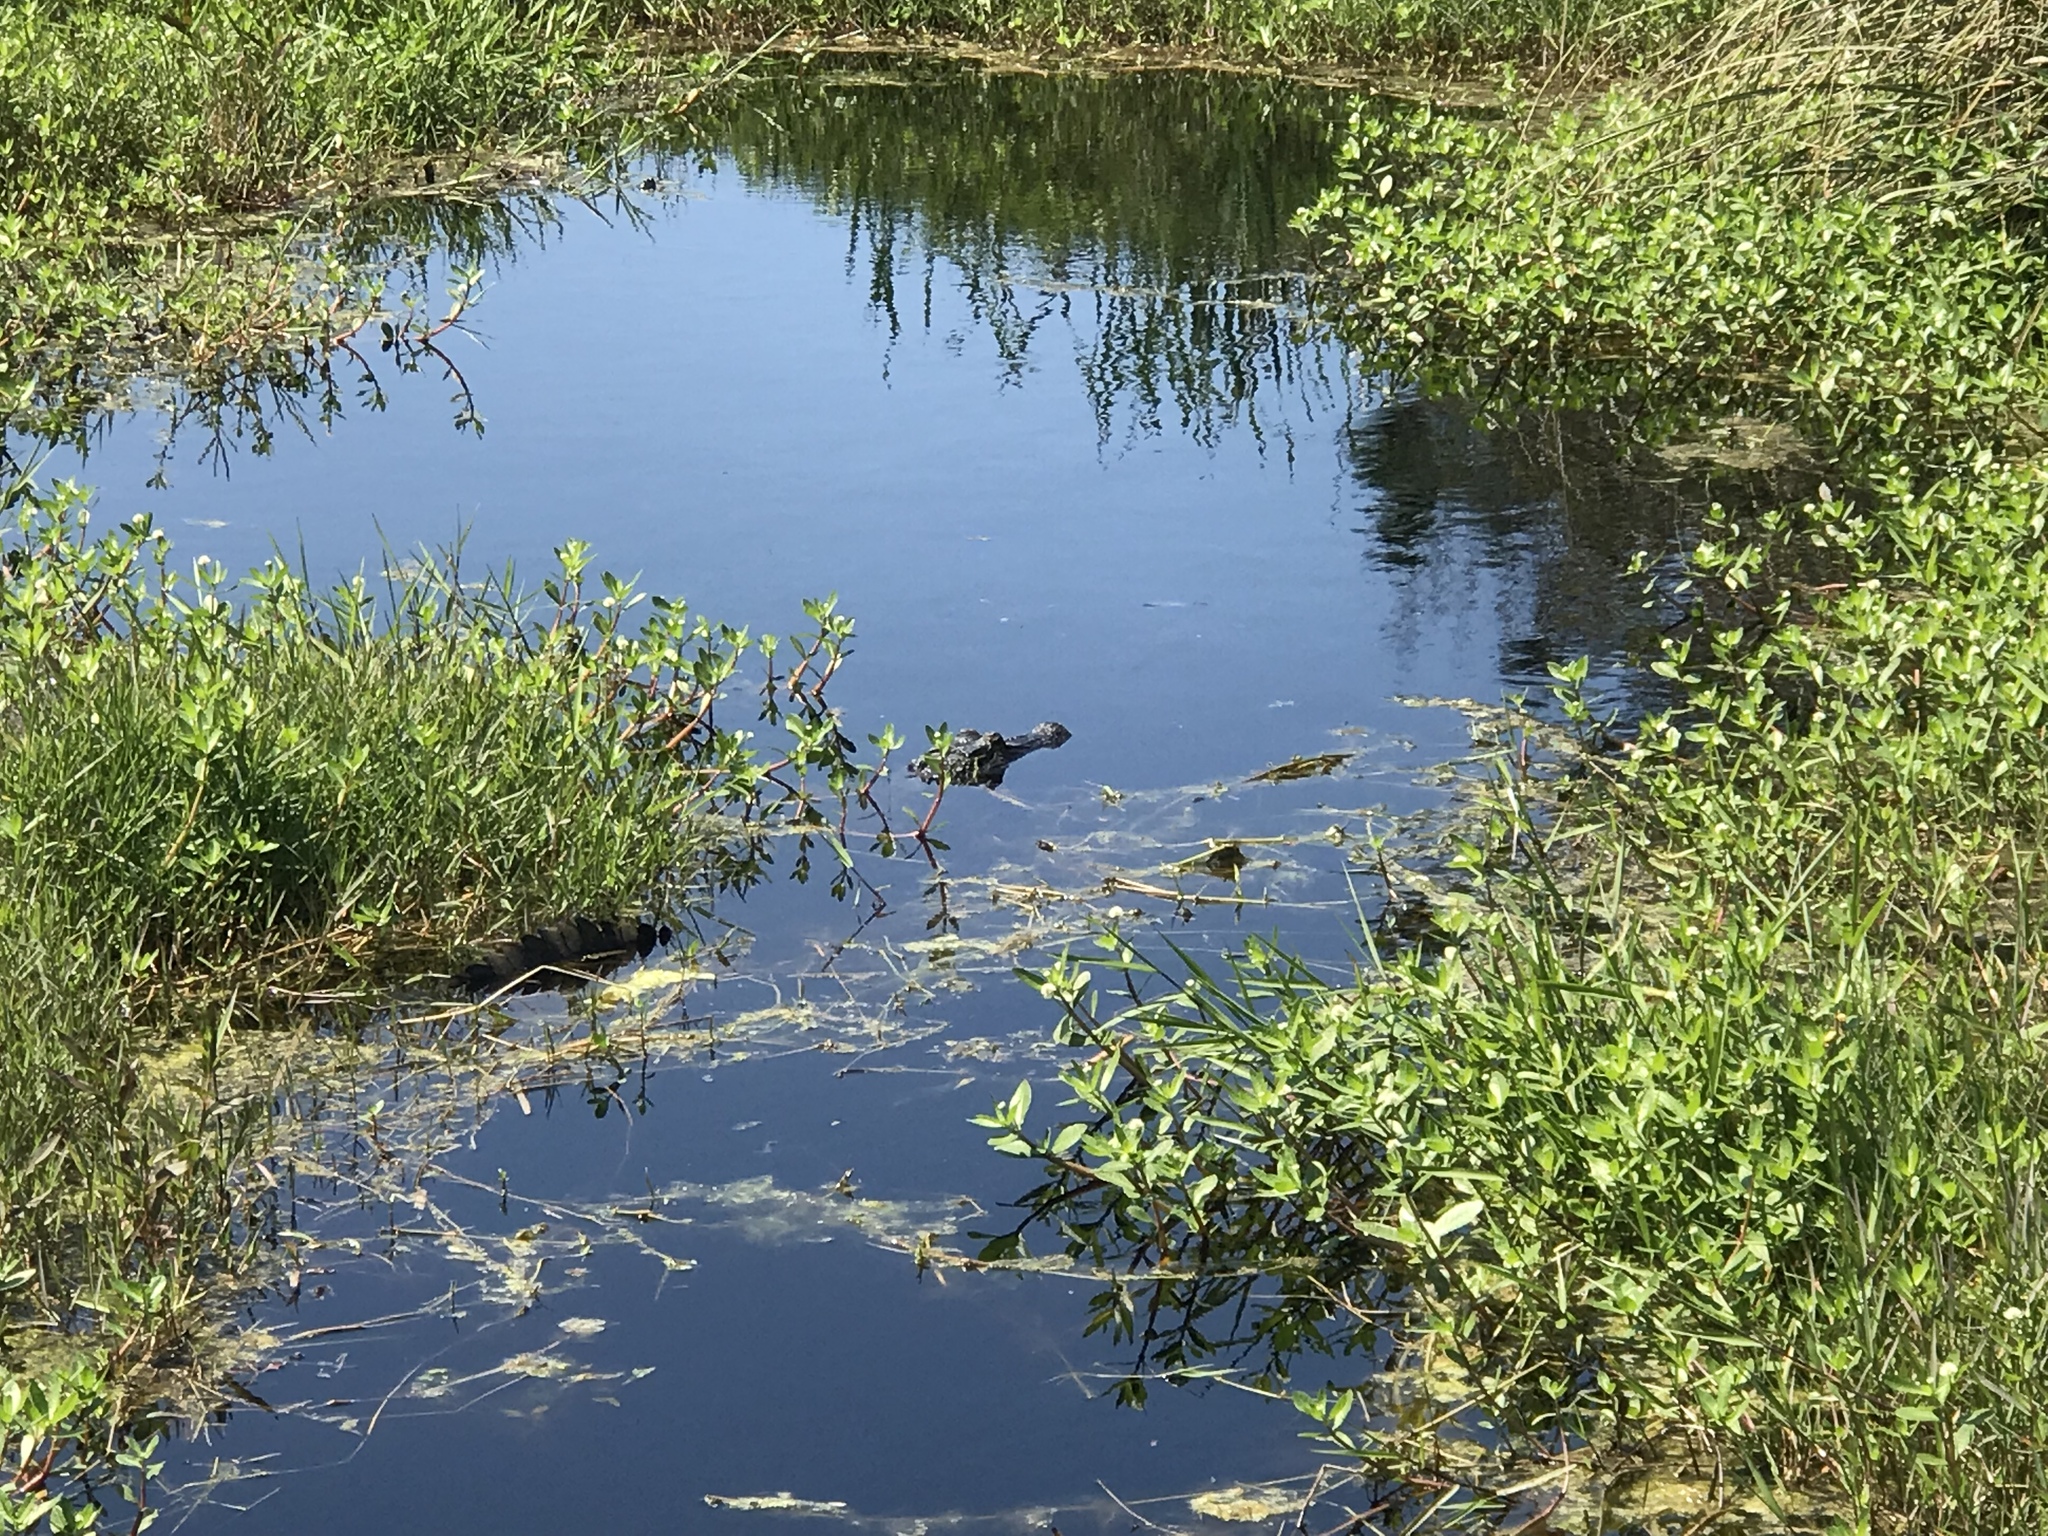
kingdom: Animalia
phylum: Chordata
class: Crocodylia
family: Alligatoridae
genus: Alligator
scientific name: Alligator mississippiensis
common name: American alligator
